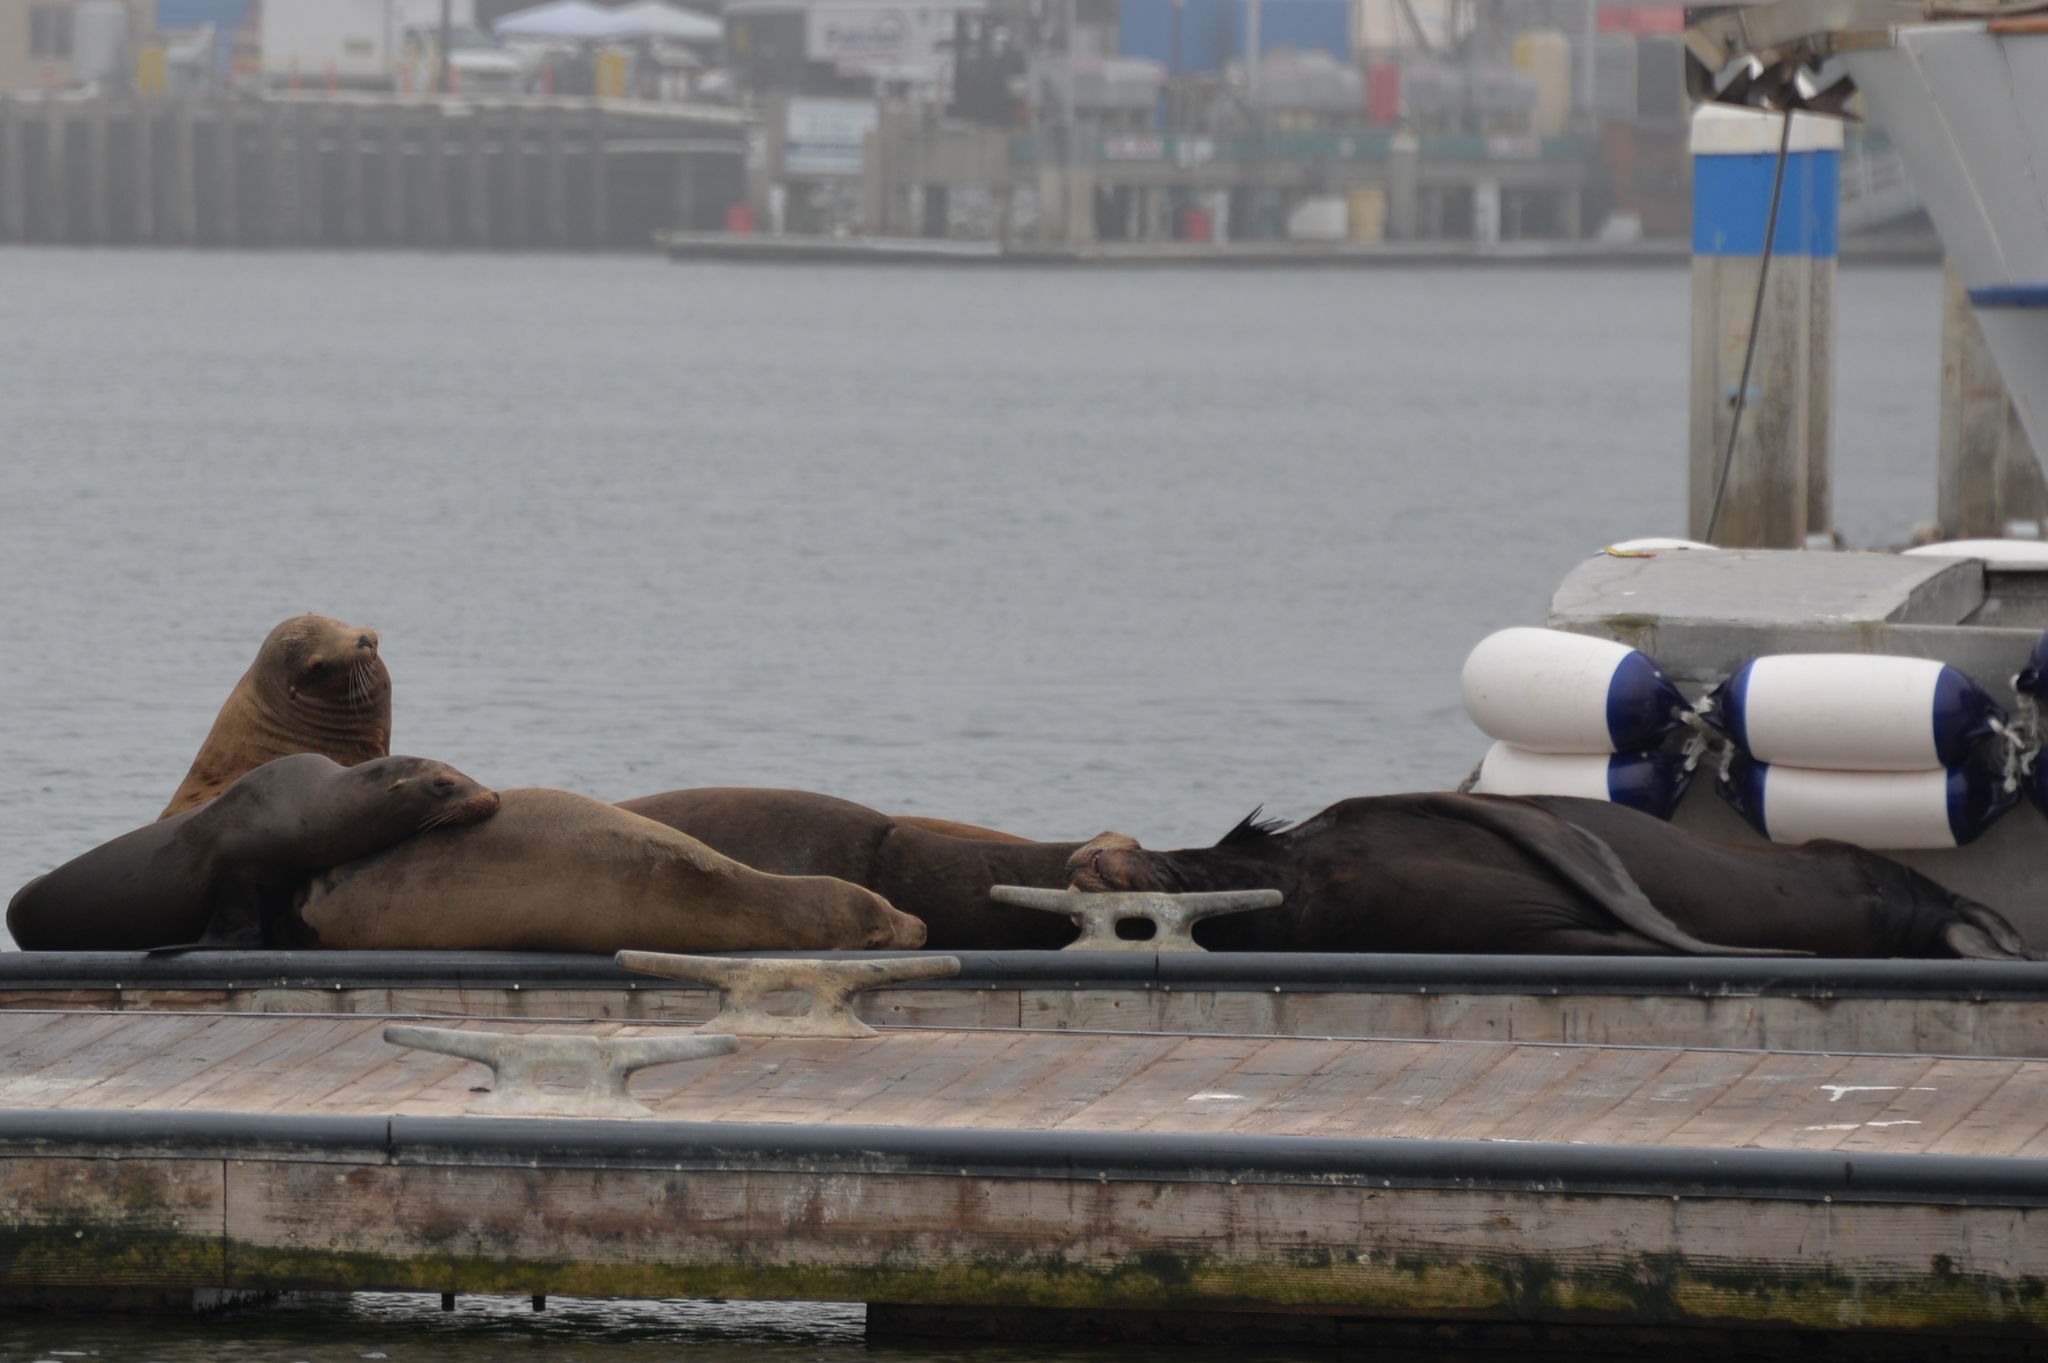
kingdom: Animalia
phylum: Chordata
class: Mammalia
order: Carnivora
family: Otariidae
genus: Zalophus
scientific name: Zalophus californianus
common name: California sea lion
